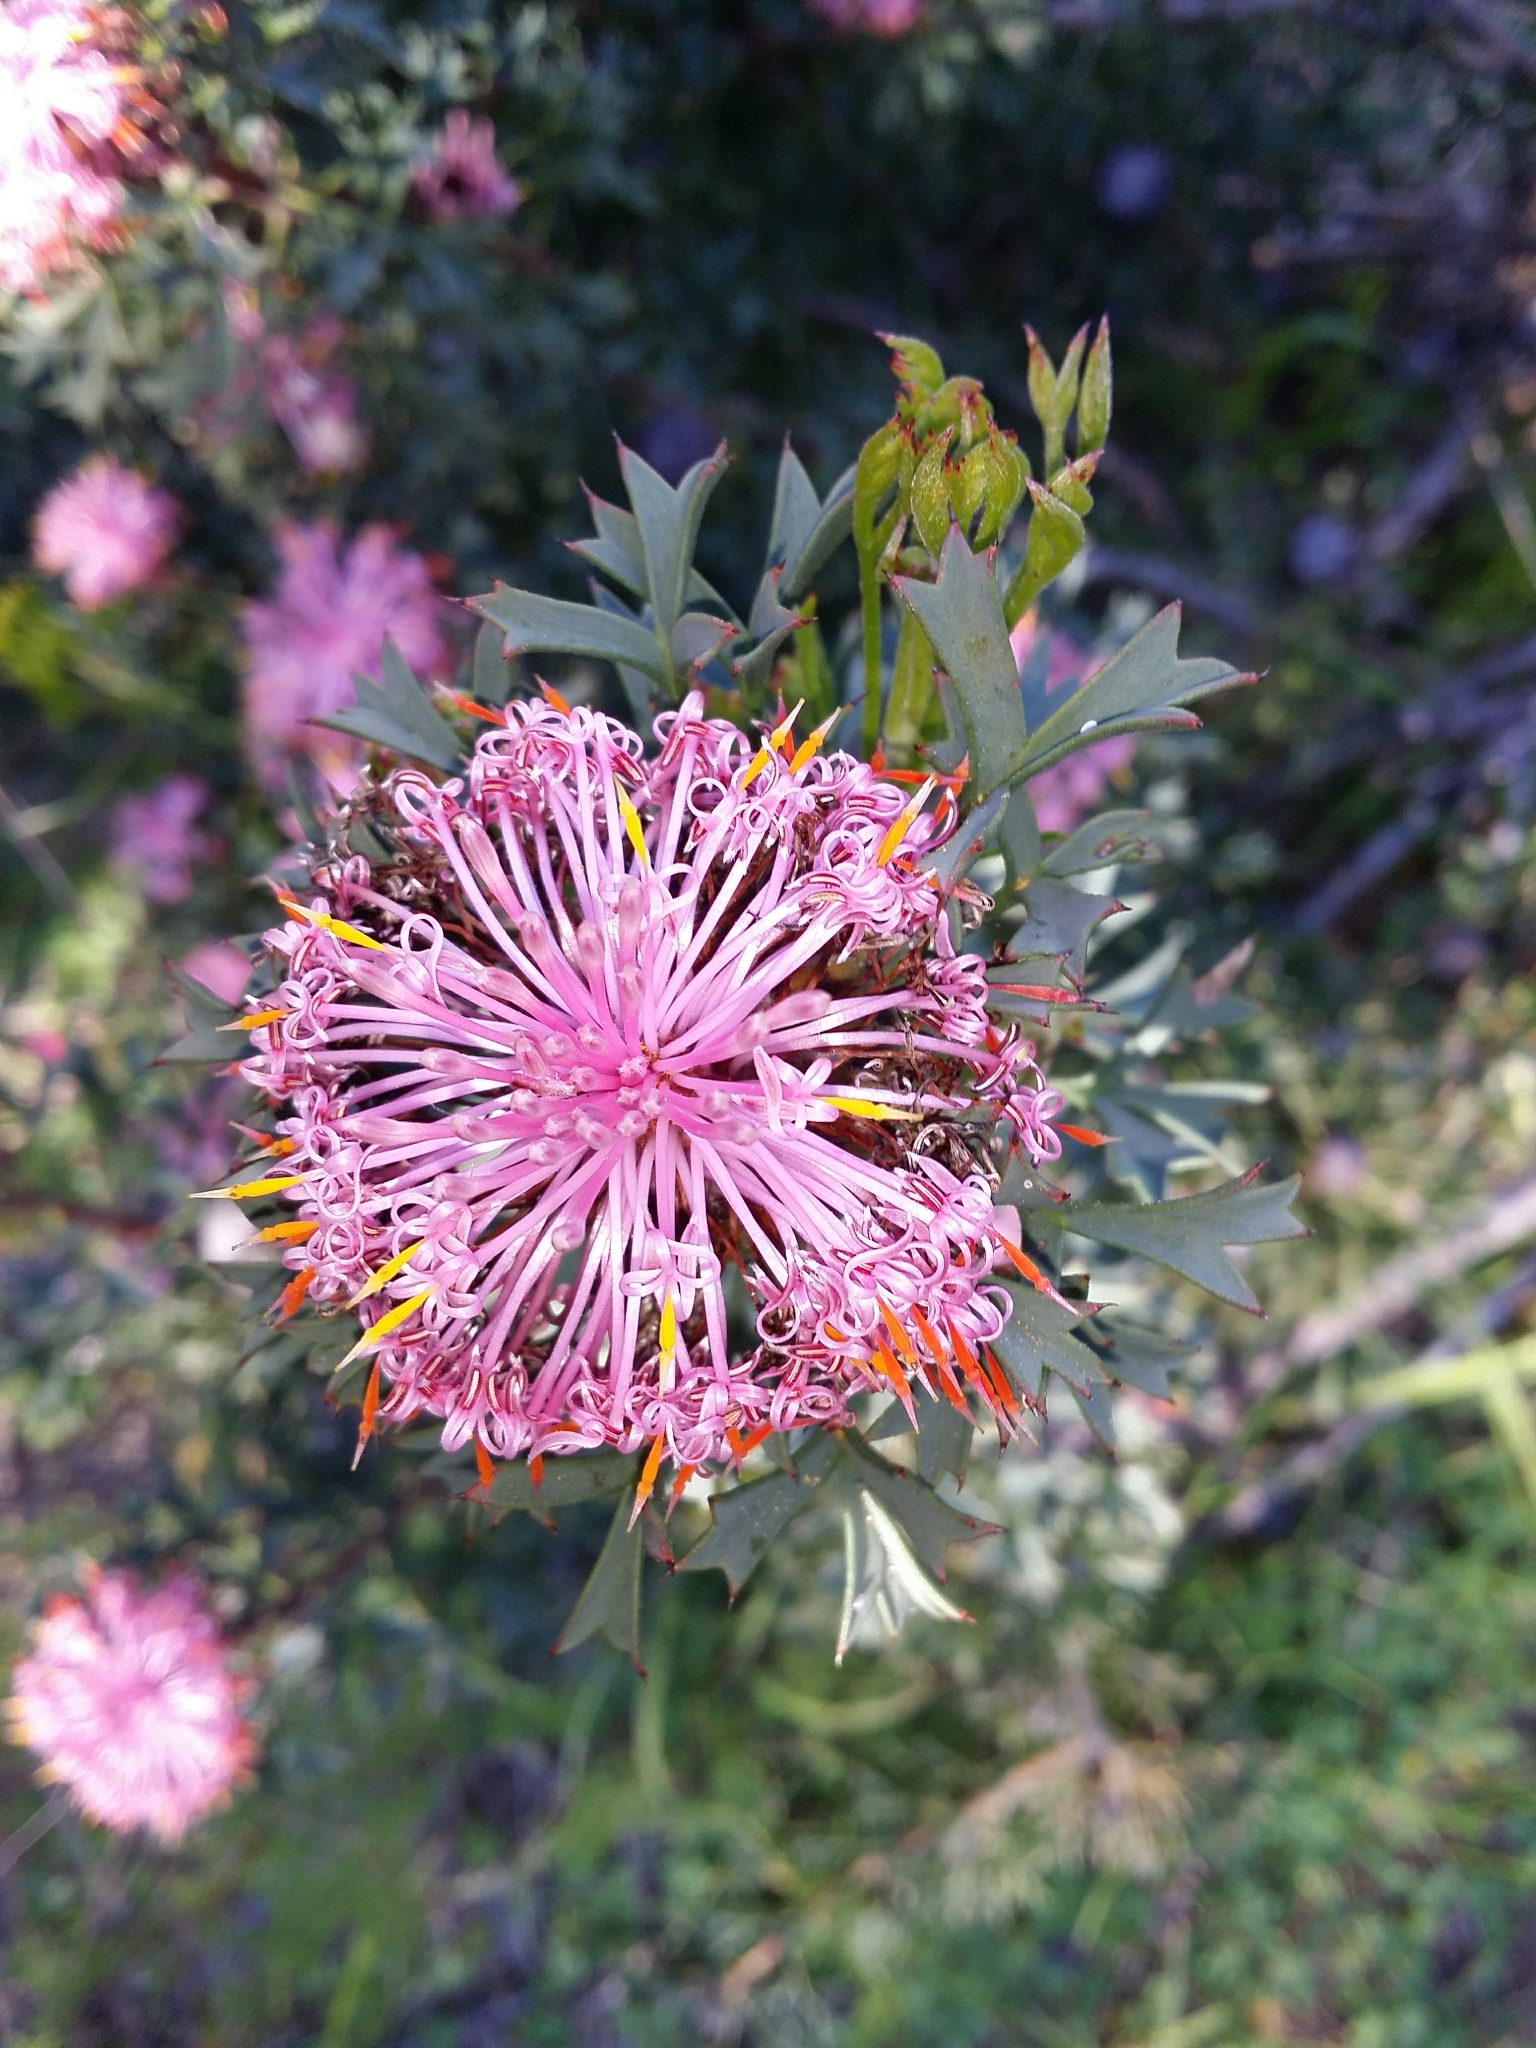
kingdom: Plantae
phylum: Tracheophyta
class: Magnoliopsida
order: Proteales
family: Proteaceae
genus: Isopogon
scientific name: Isopogon dubius
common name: Pincushion-coneflower
